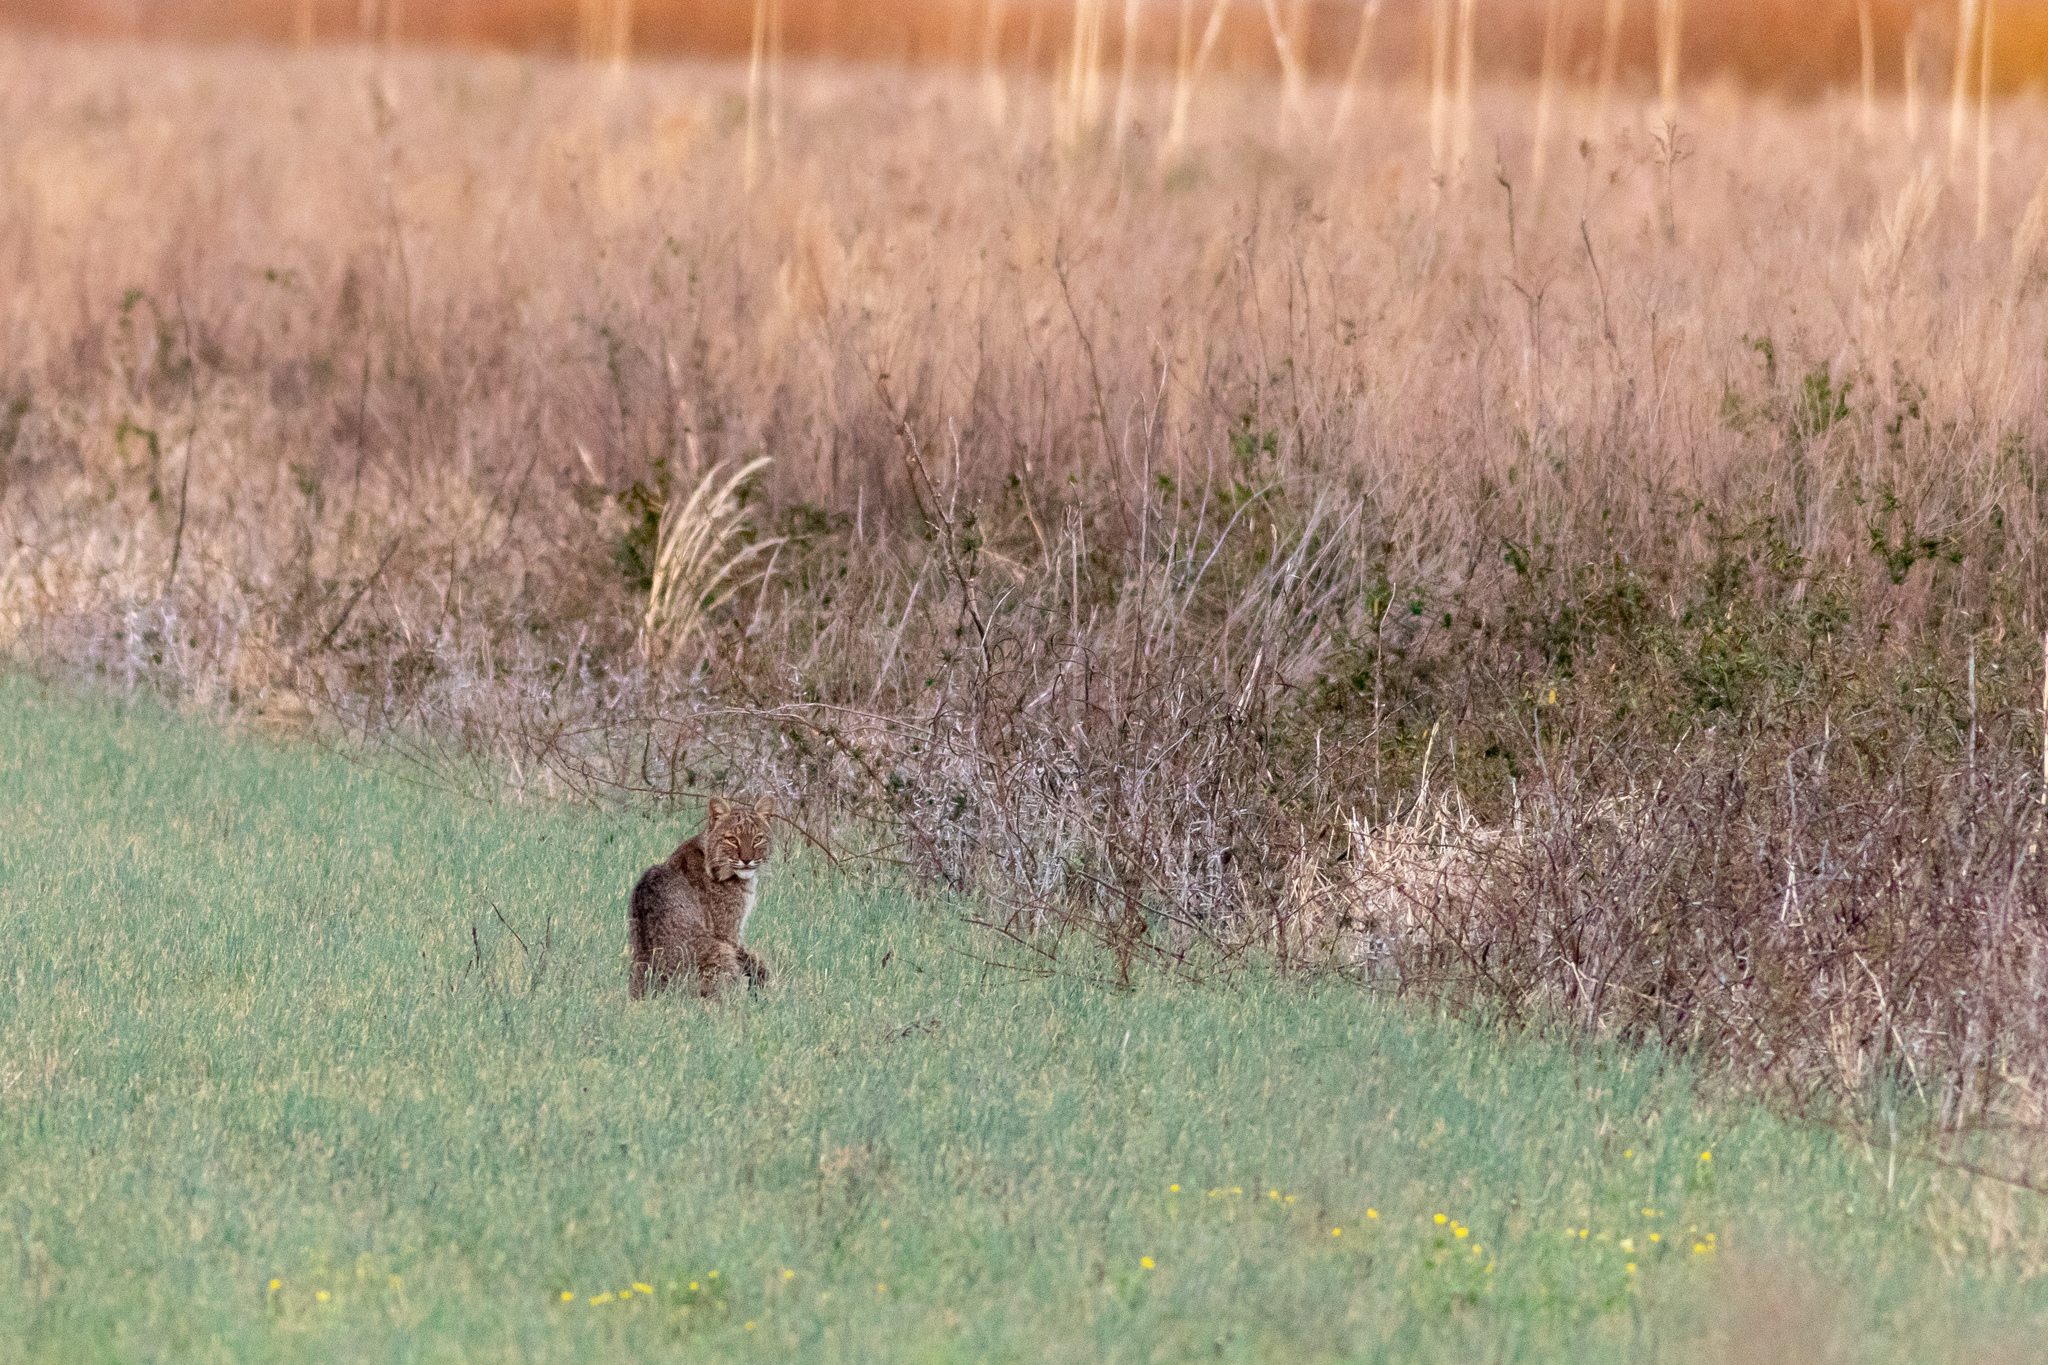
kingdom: Animalia
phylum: Chordata
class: Mammalia
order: Carnivora
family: Felidae
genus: Lynx
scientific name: Lynx rufus
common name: Bobcat
